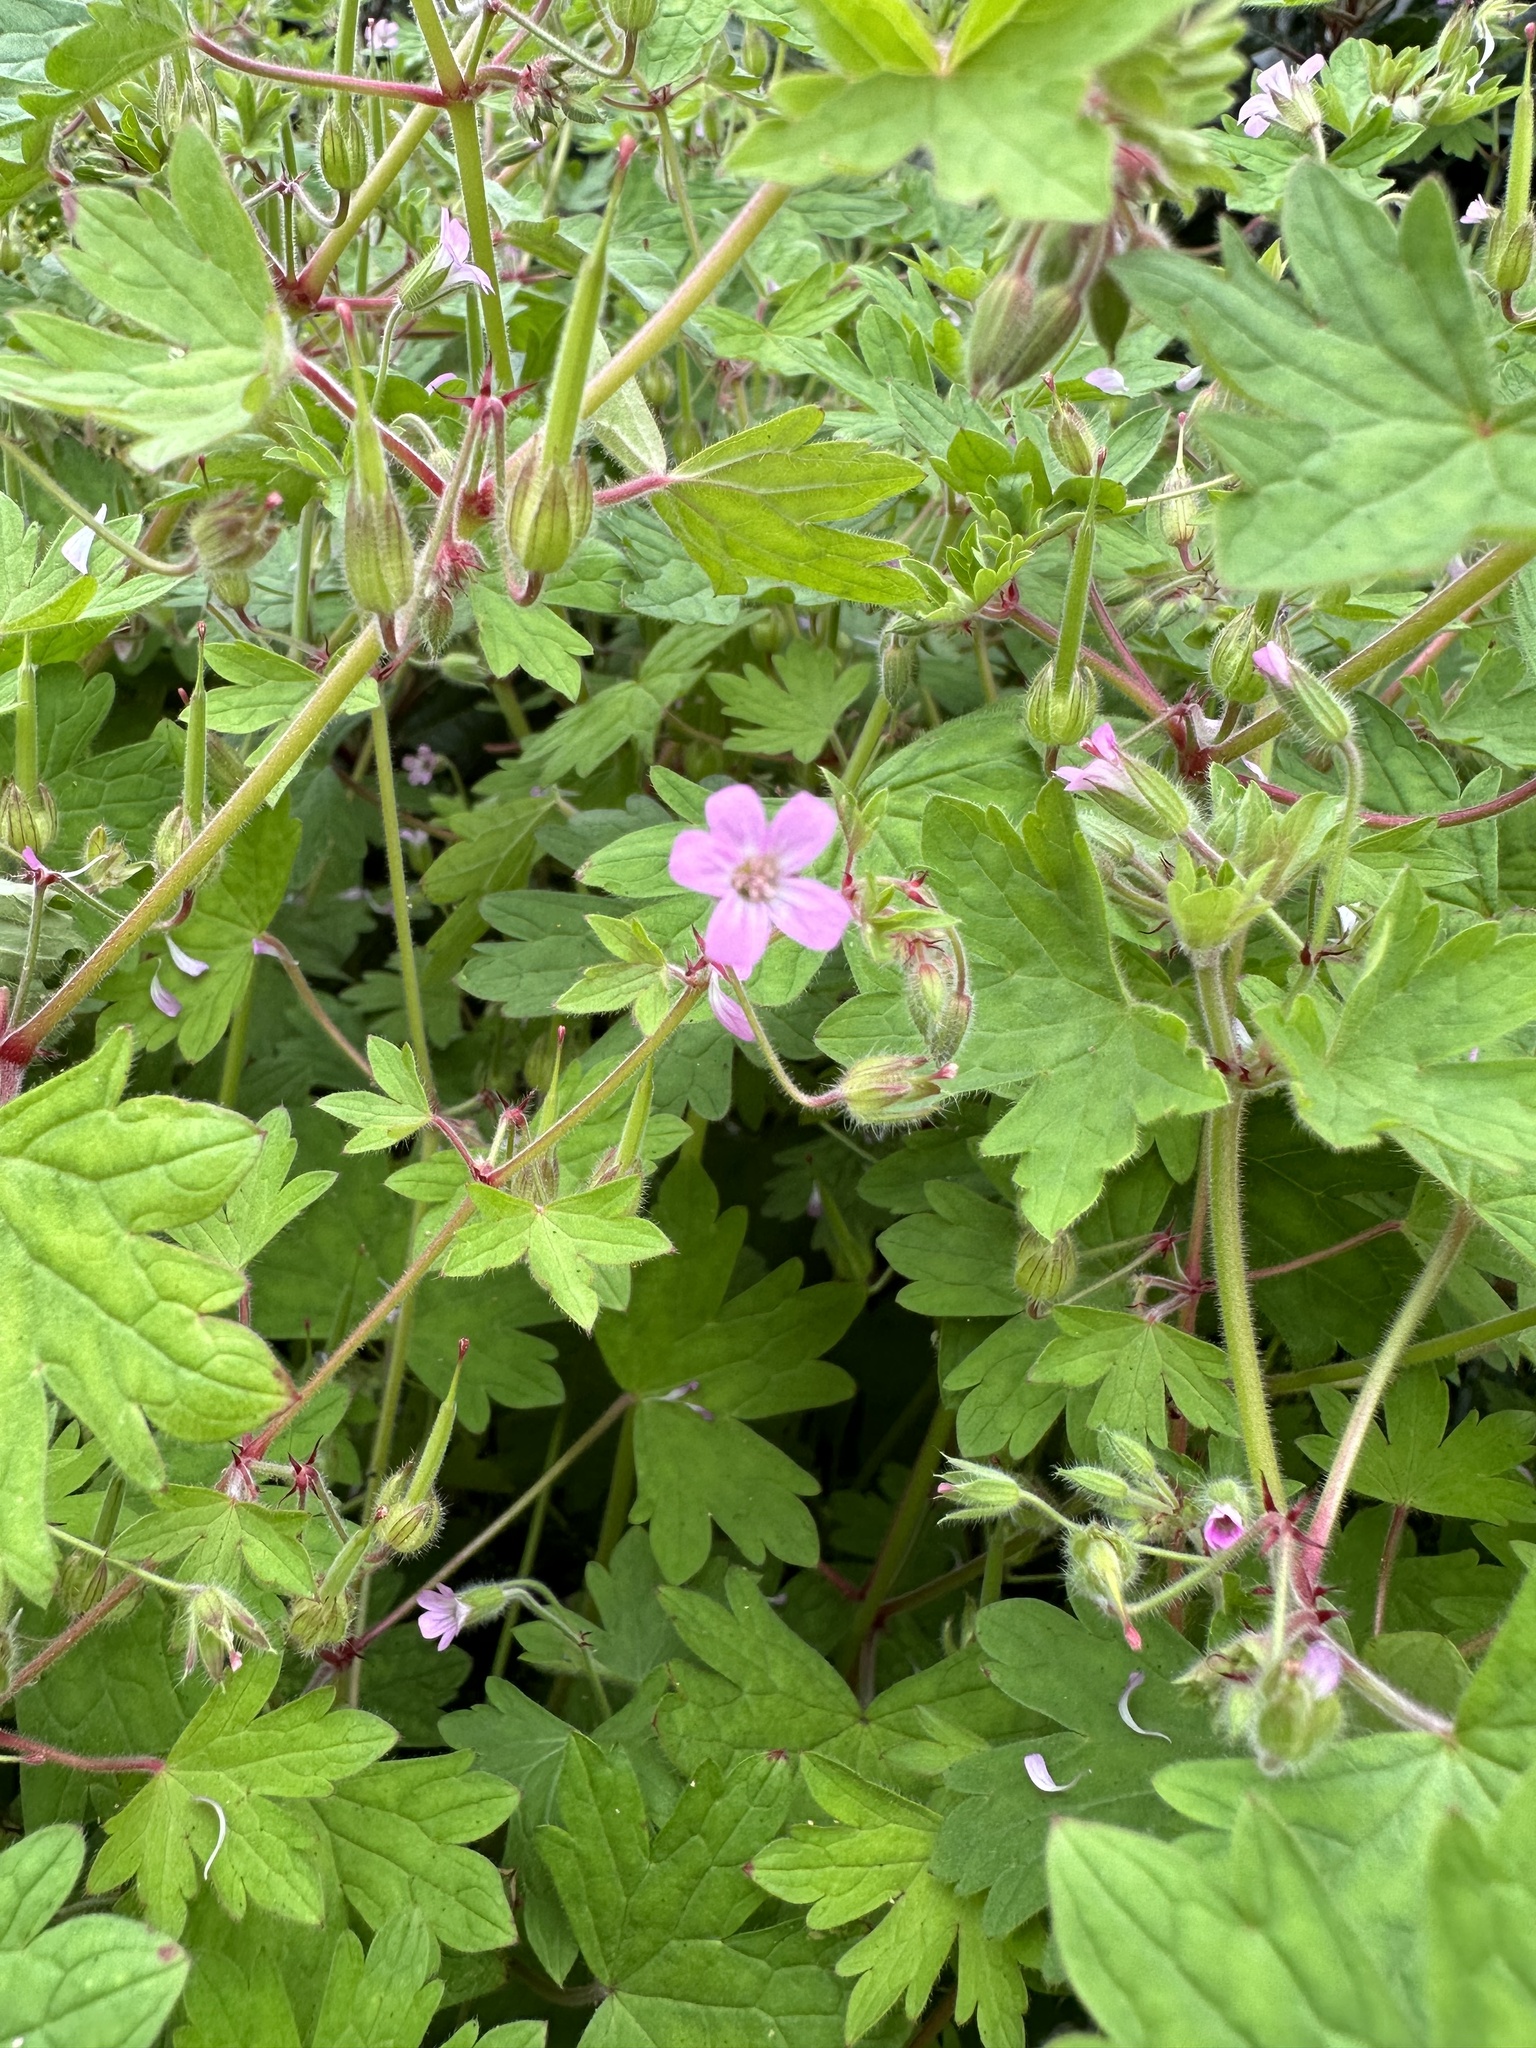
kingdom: Plantae
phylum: Tracheophyta
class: Magnoliopsida
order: Geraniales
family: Geraniaceae
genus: Geranium
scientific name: Geranium rotundifolium
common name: Round-leaved crane's-bill
